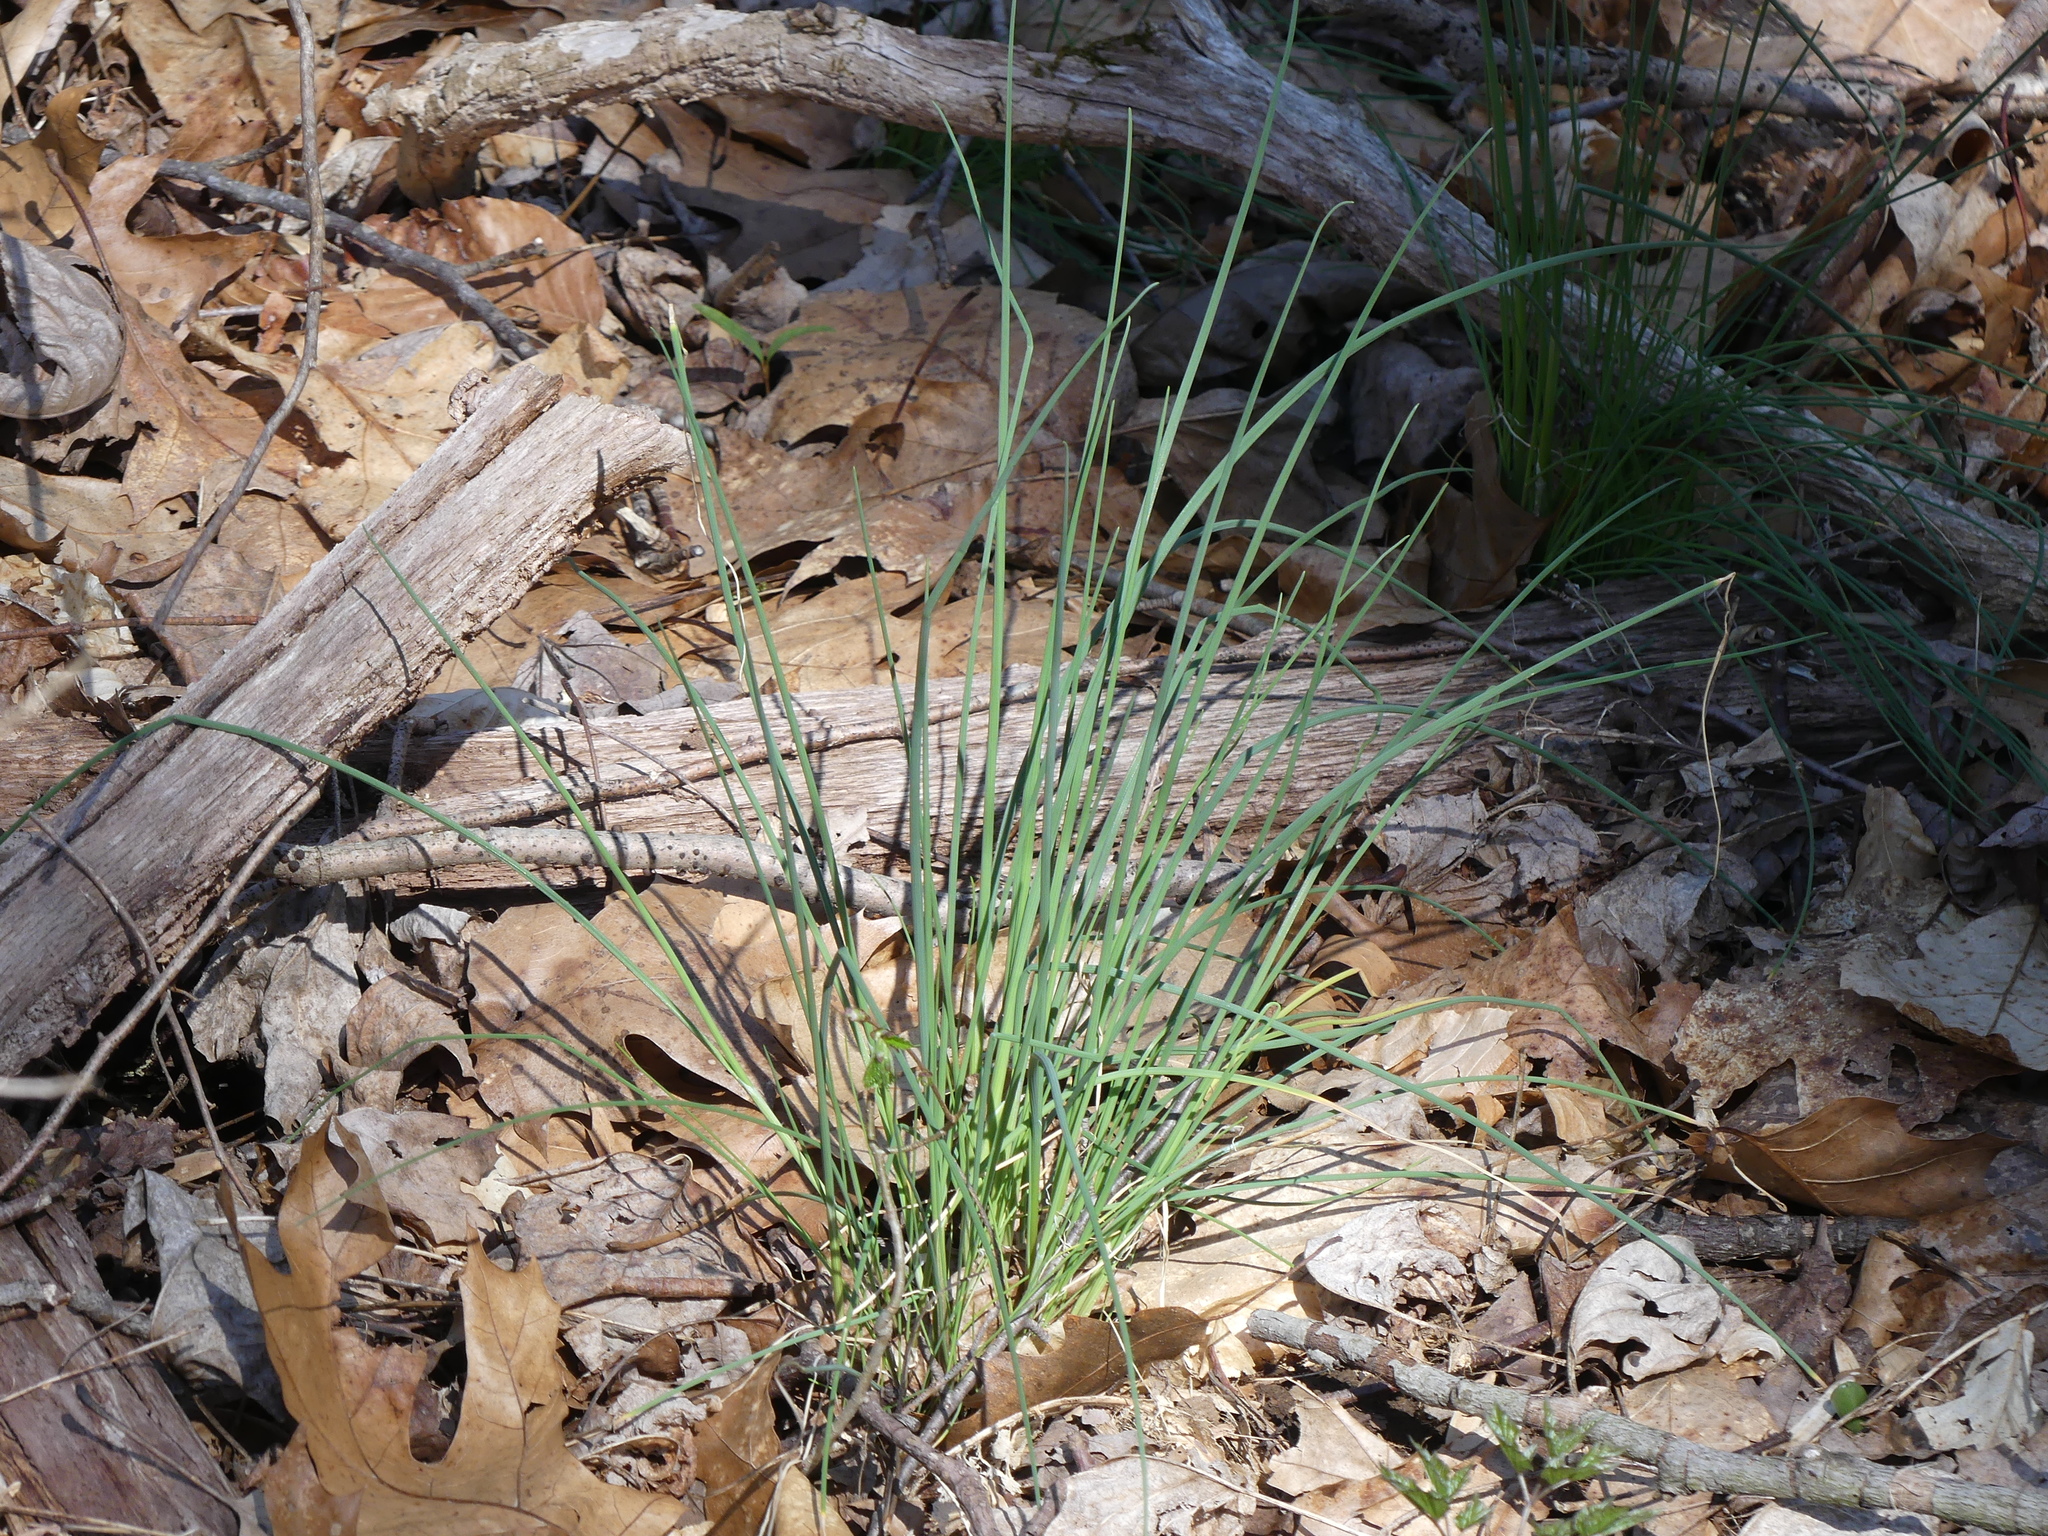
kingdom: Plantae
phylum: Tracheophyta
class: Liliopsida
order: Asparagales
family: Amaryllidaceae
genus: Allium
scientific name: Allium vineale
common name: Crow garlic
